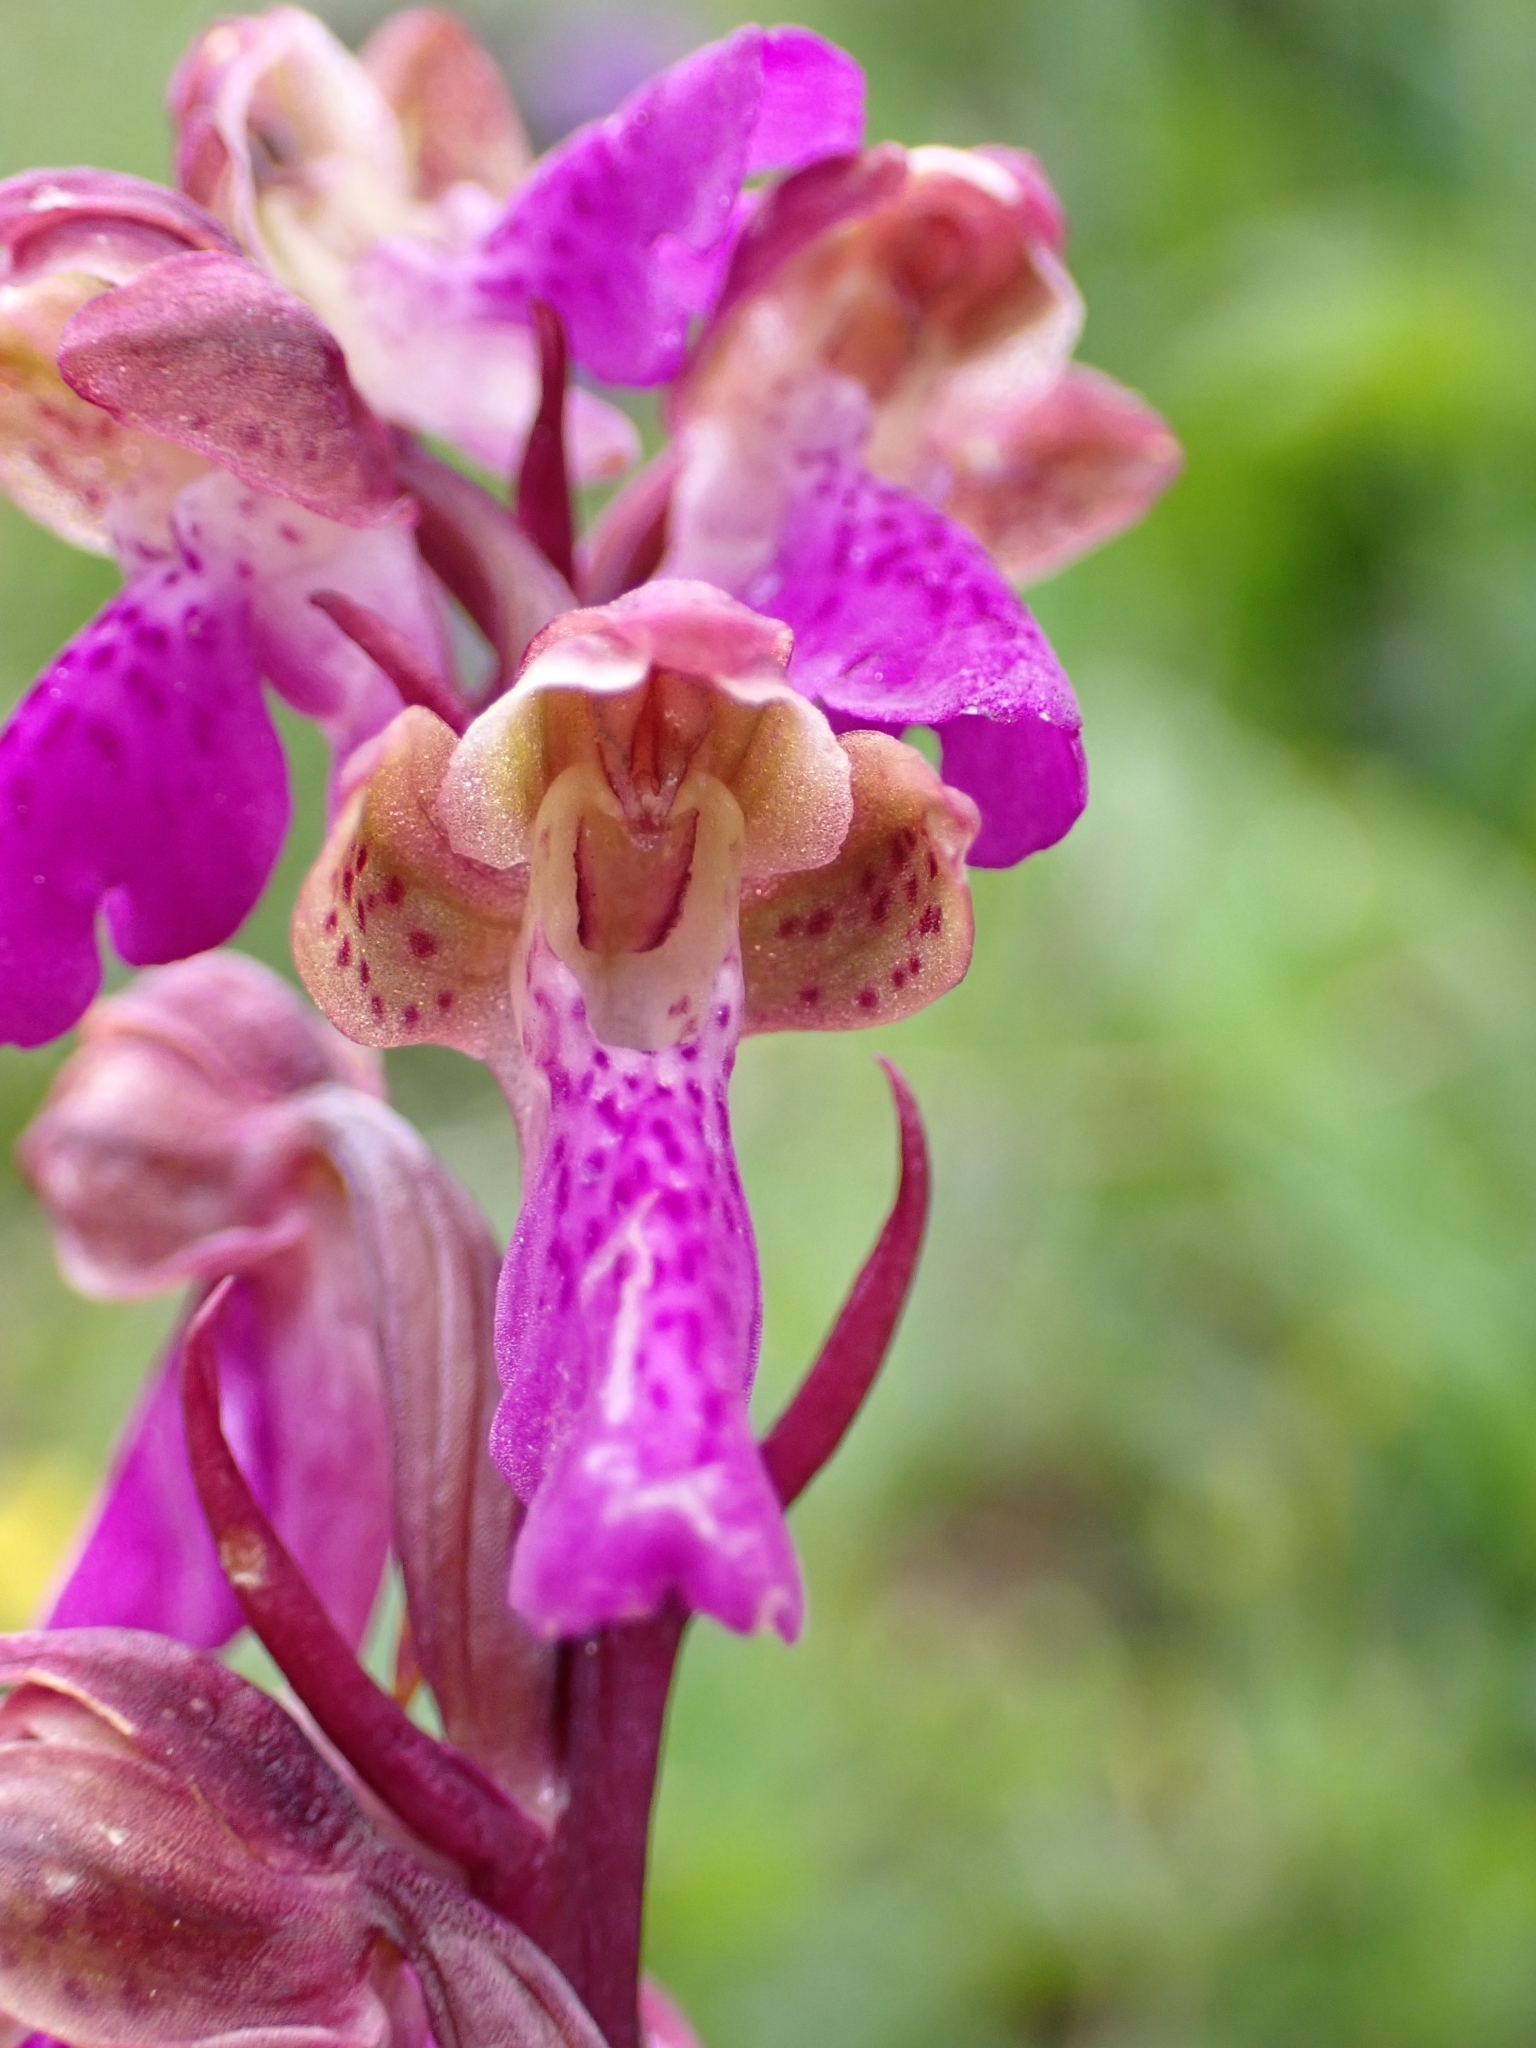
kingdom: Plantae
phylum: Tracheophyta
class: Liliopsida
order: Asparagales
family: Orchidaceae
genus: Orchis
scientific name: Orchis spitzelii
